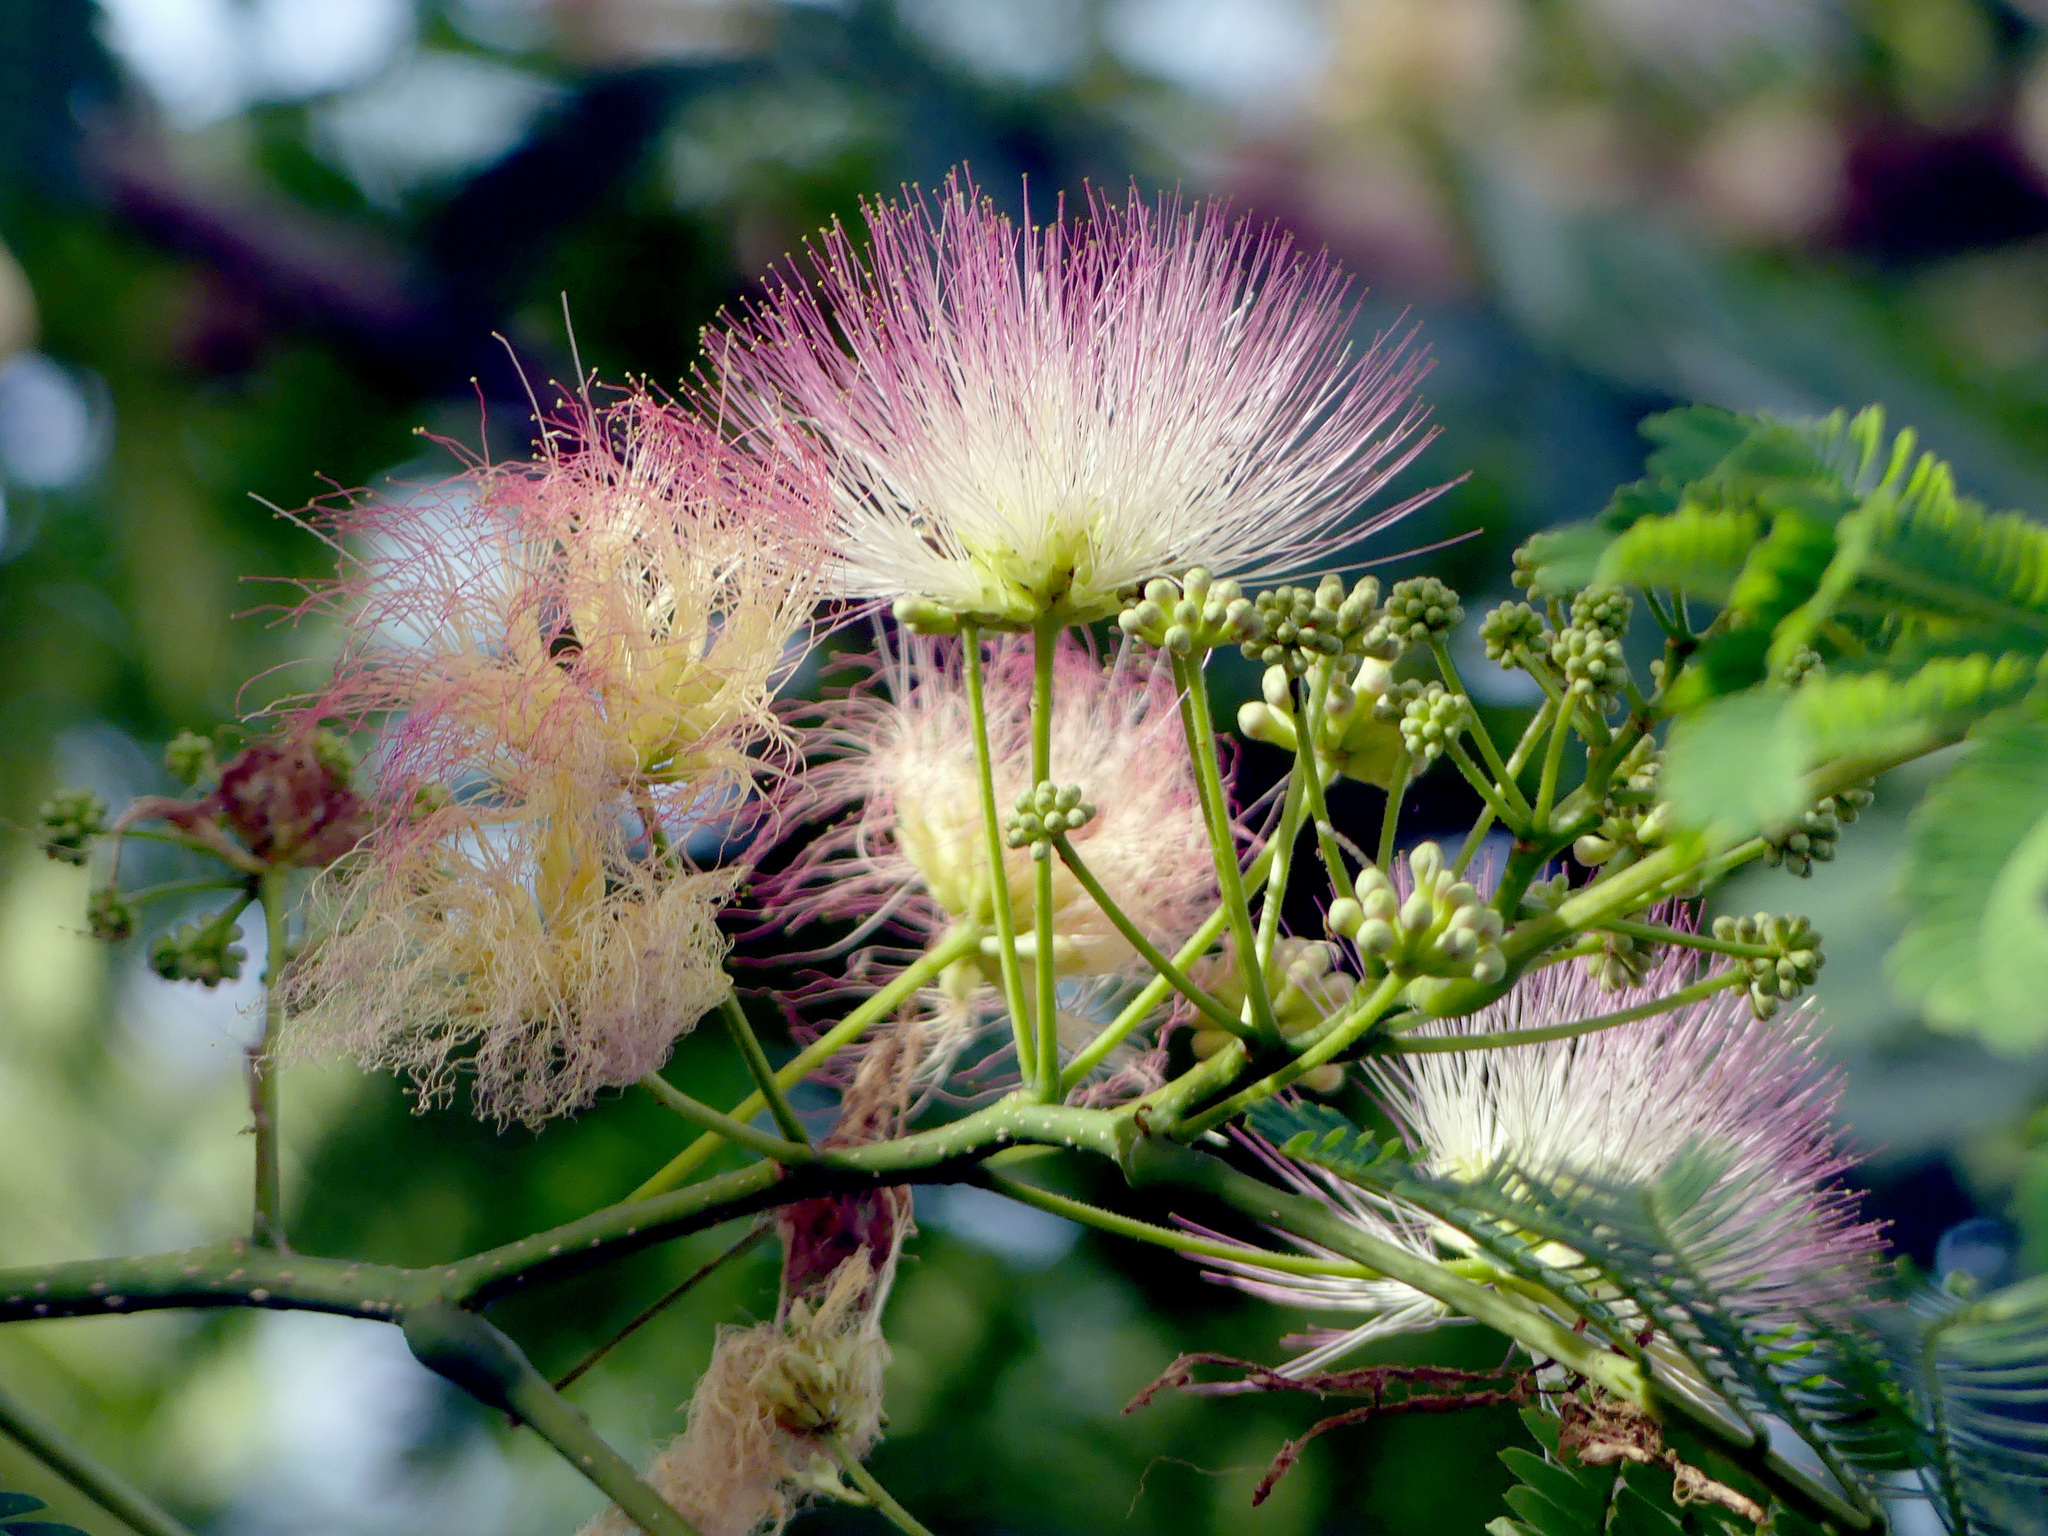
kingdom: Plantae
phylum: Tracheophyta
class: Magnoliopsida
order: Fabales
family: Fabaceae
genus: Albizia
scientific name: Albizia julibrissin
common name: Silktree
